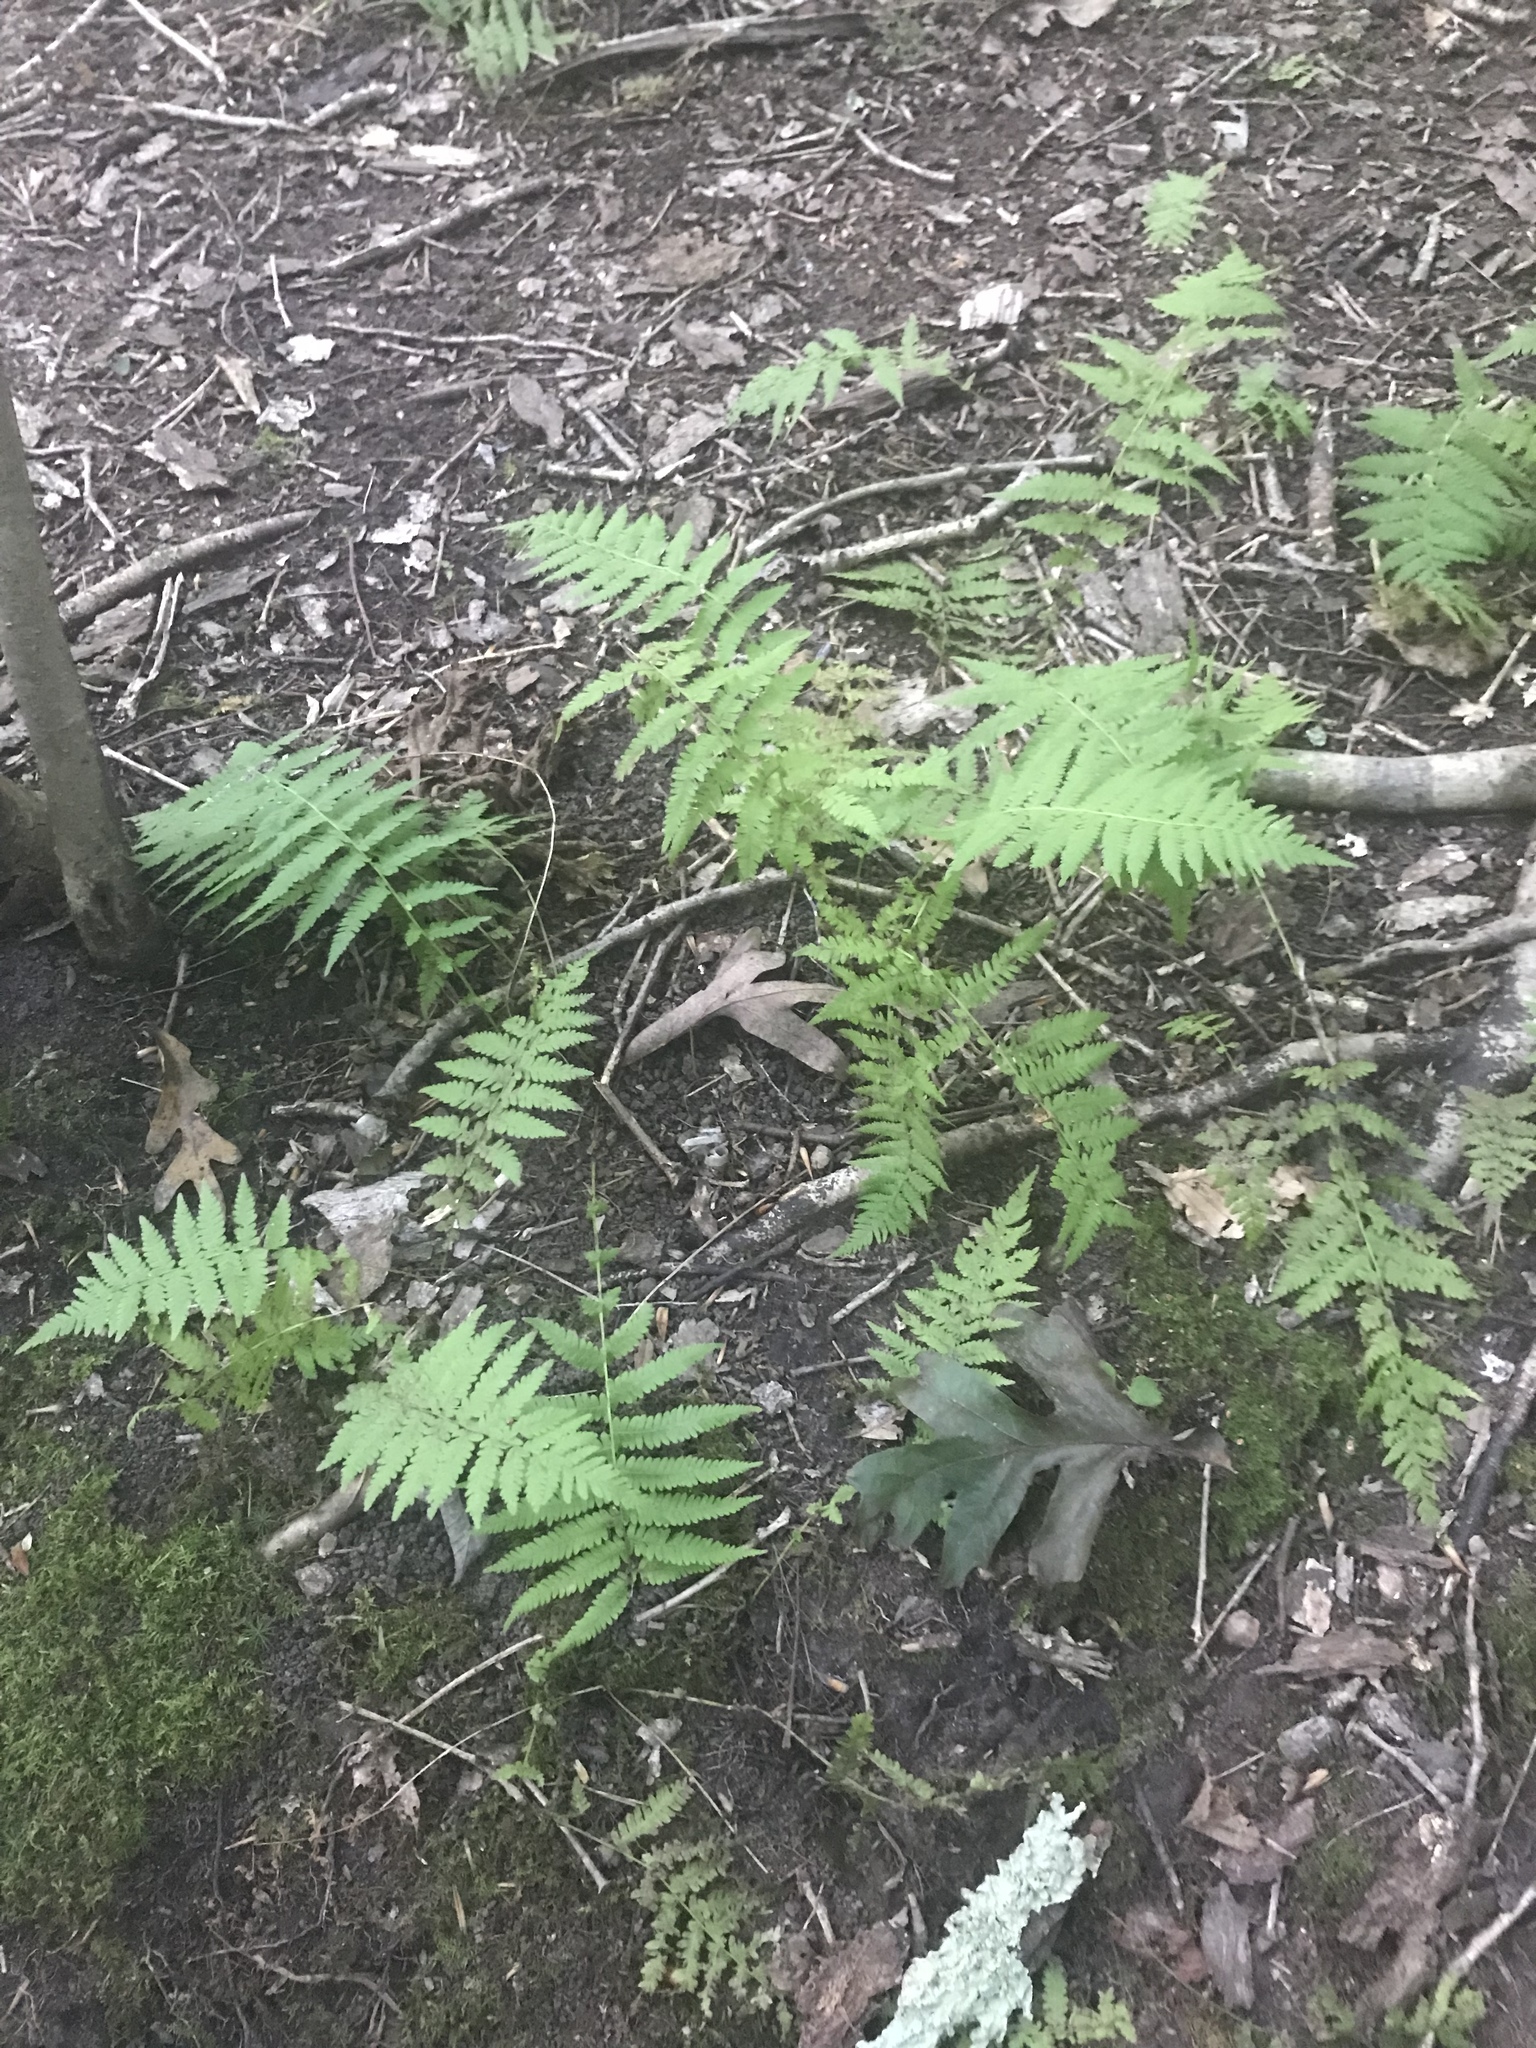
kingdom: Plantae
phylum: Tracheophyta
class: Polypodiopsida
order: Polypodiales
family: Thelypteridaceae
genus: Amauropelta
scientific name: Amauropelta noveboracensis
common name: New york fern
